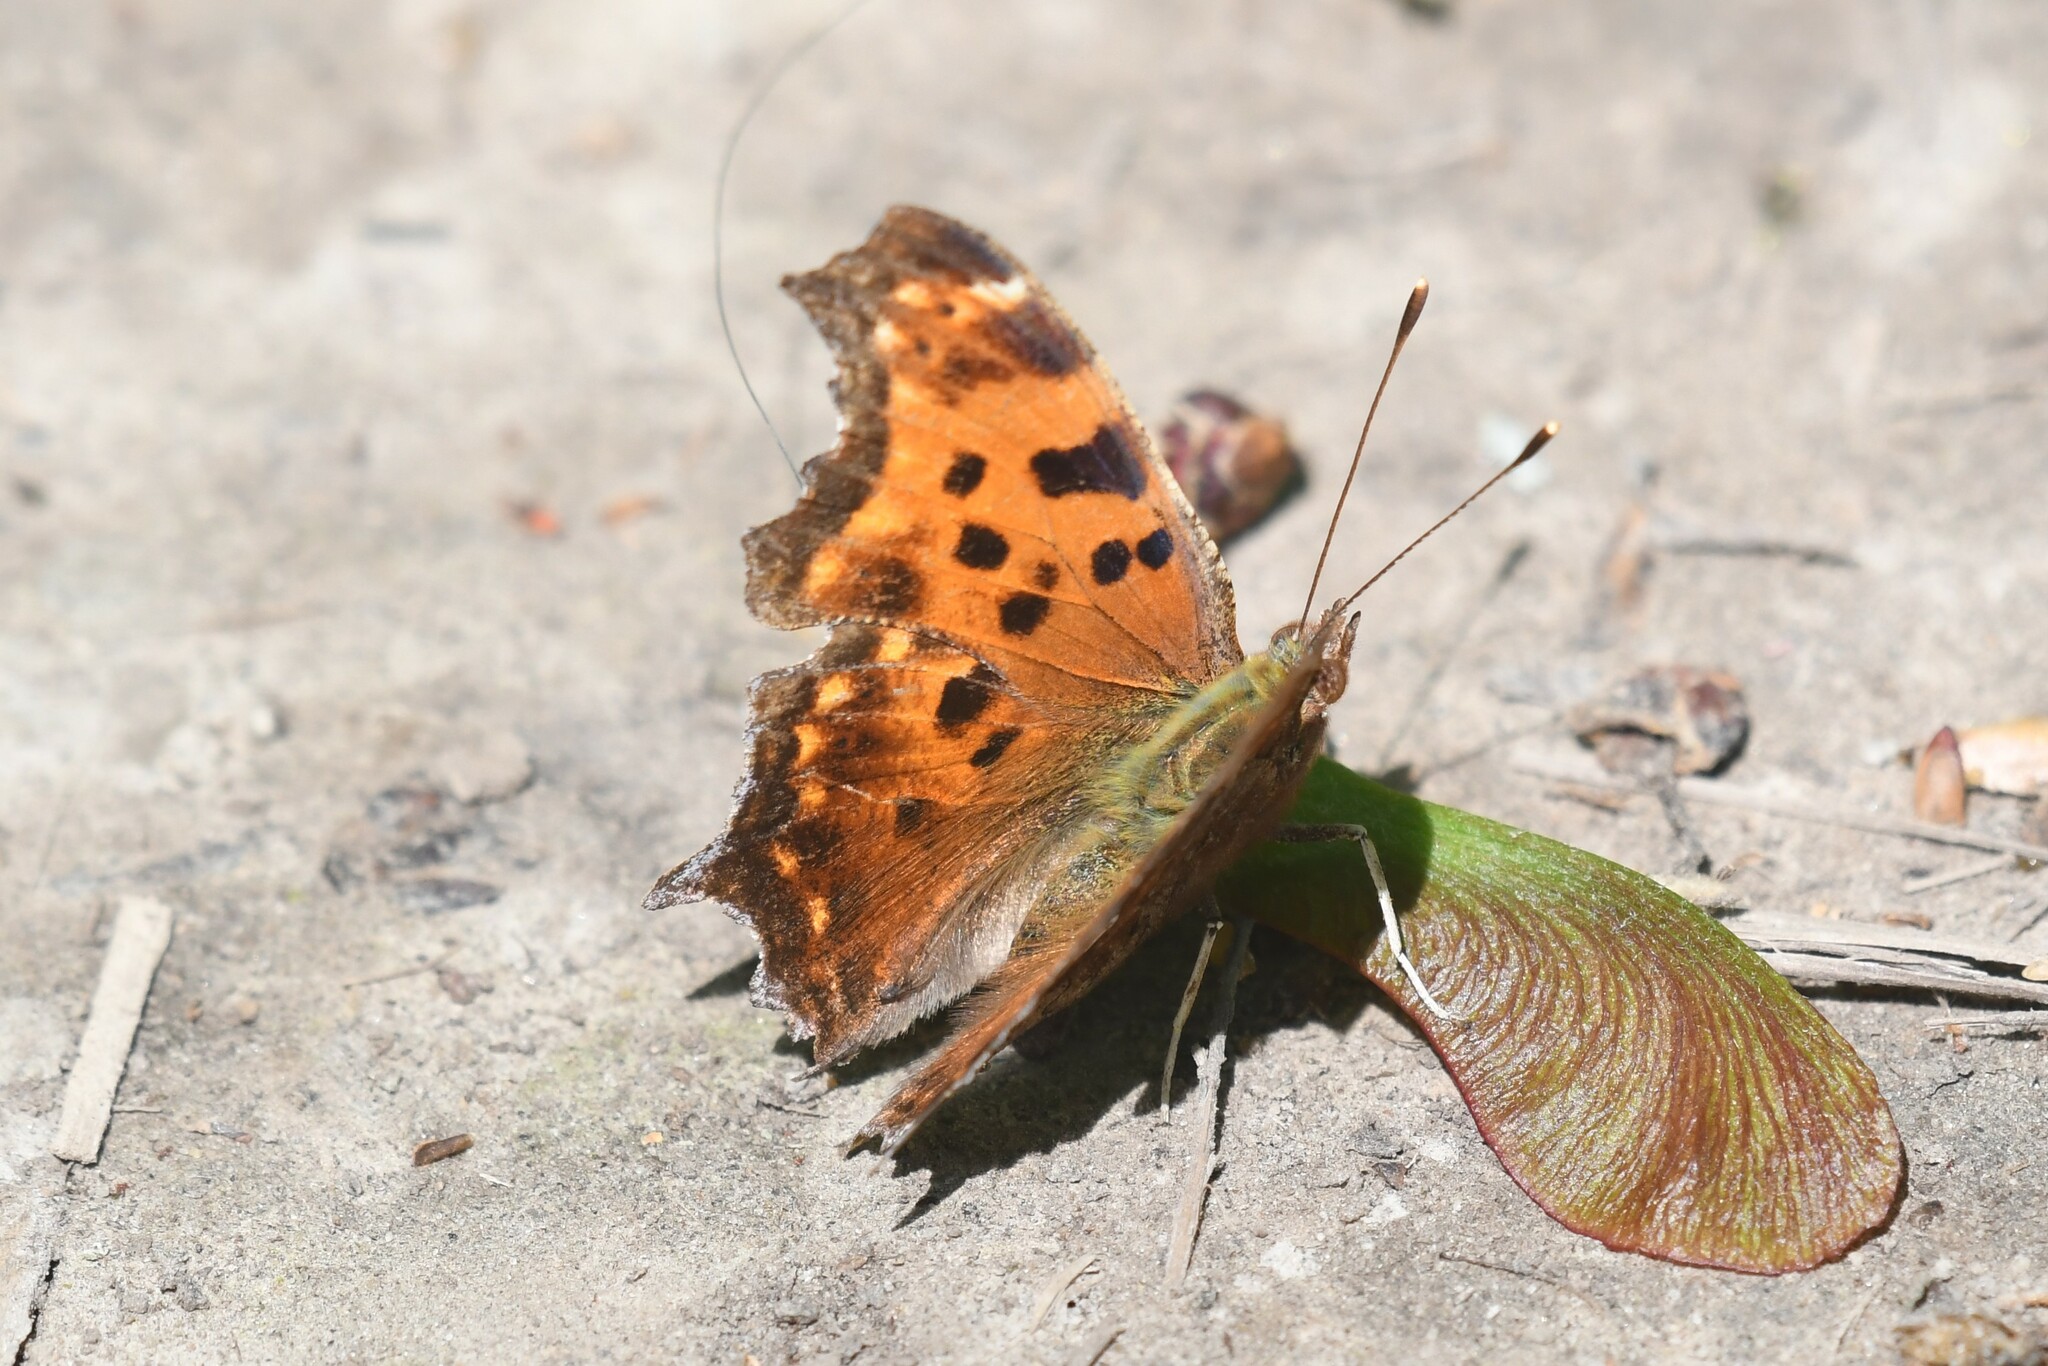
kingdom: Animalia
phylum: Arthropoda
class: Insecta
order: Lepidoptera
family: Nymphalidae
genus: Polygonia
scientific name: Polygonia comma
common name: Eastern comma
